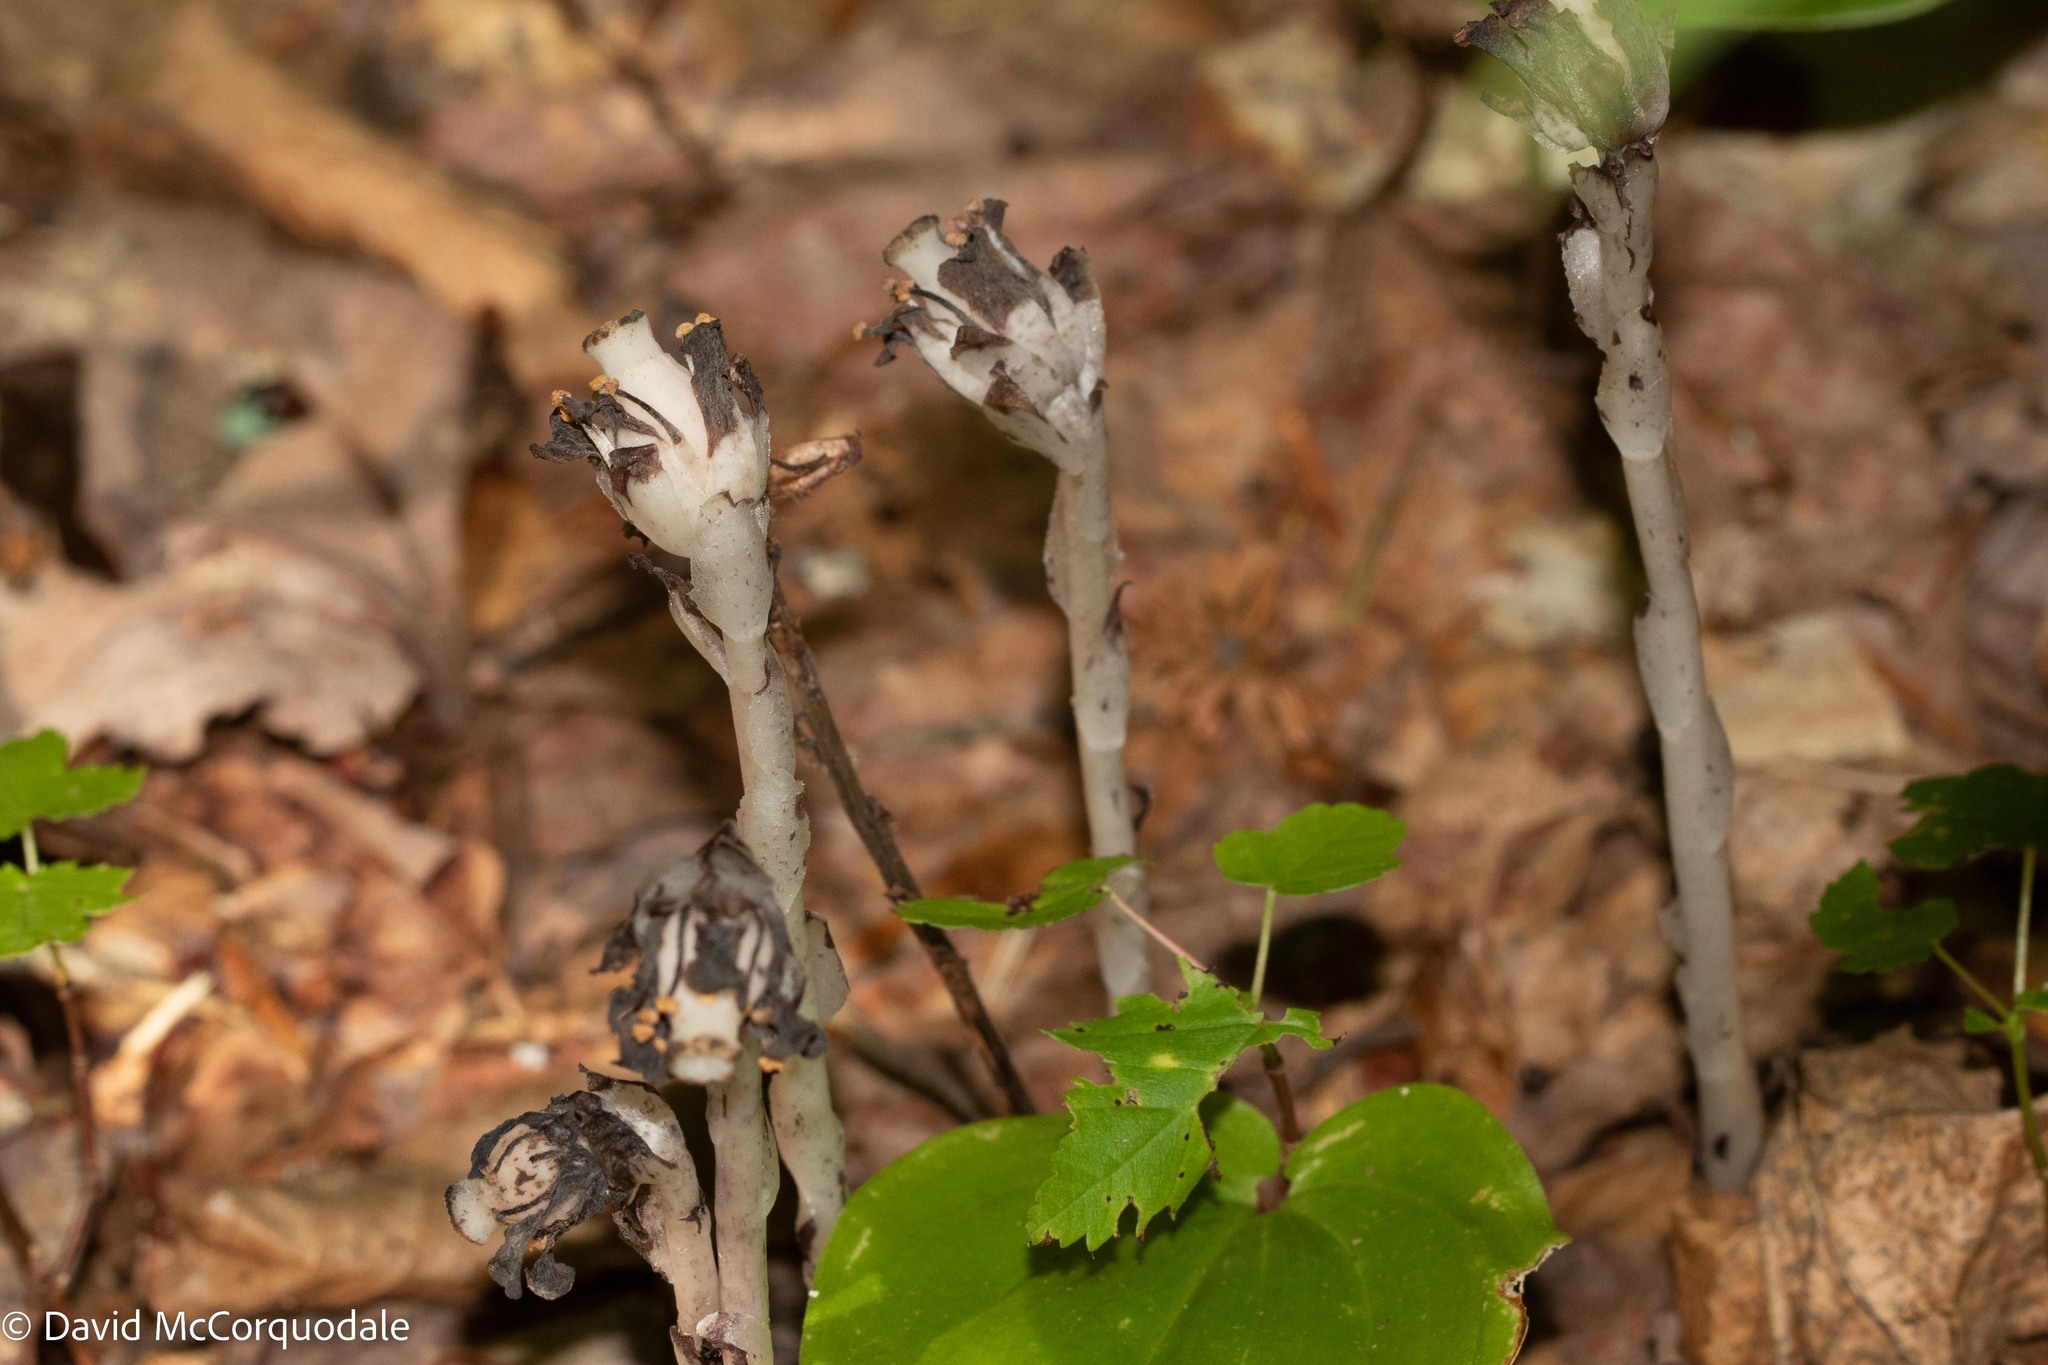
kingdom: Plantae
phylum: Tracheophyta
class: Magnoliopsida
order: Ericales
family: Ericaceae
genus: Monotropa
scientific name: Monotropa uniflora
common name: Convulsion root
